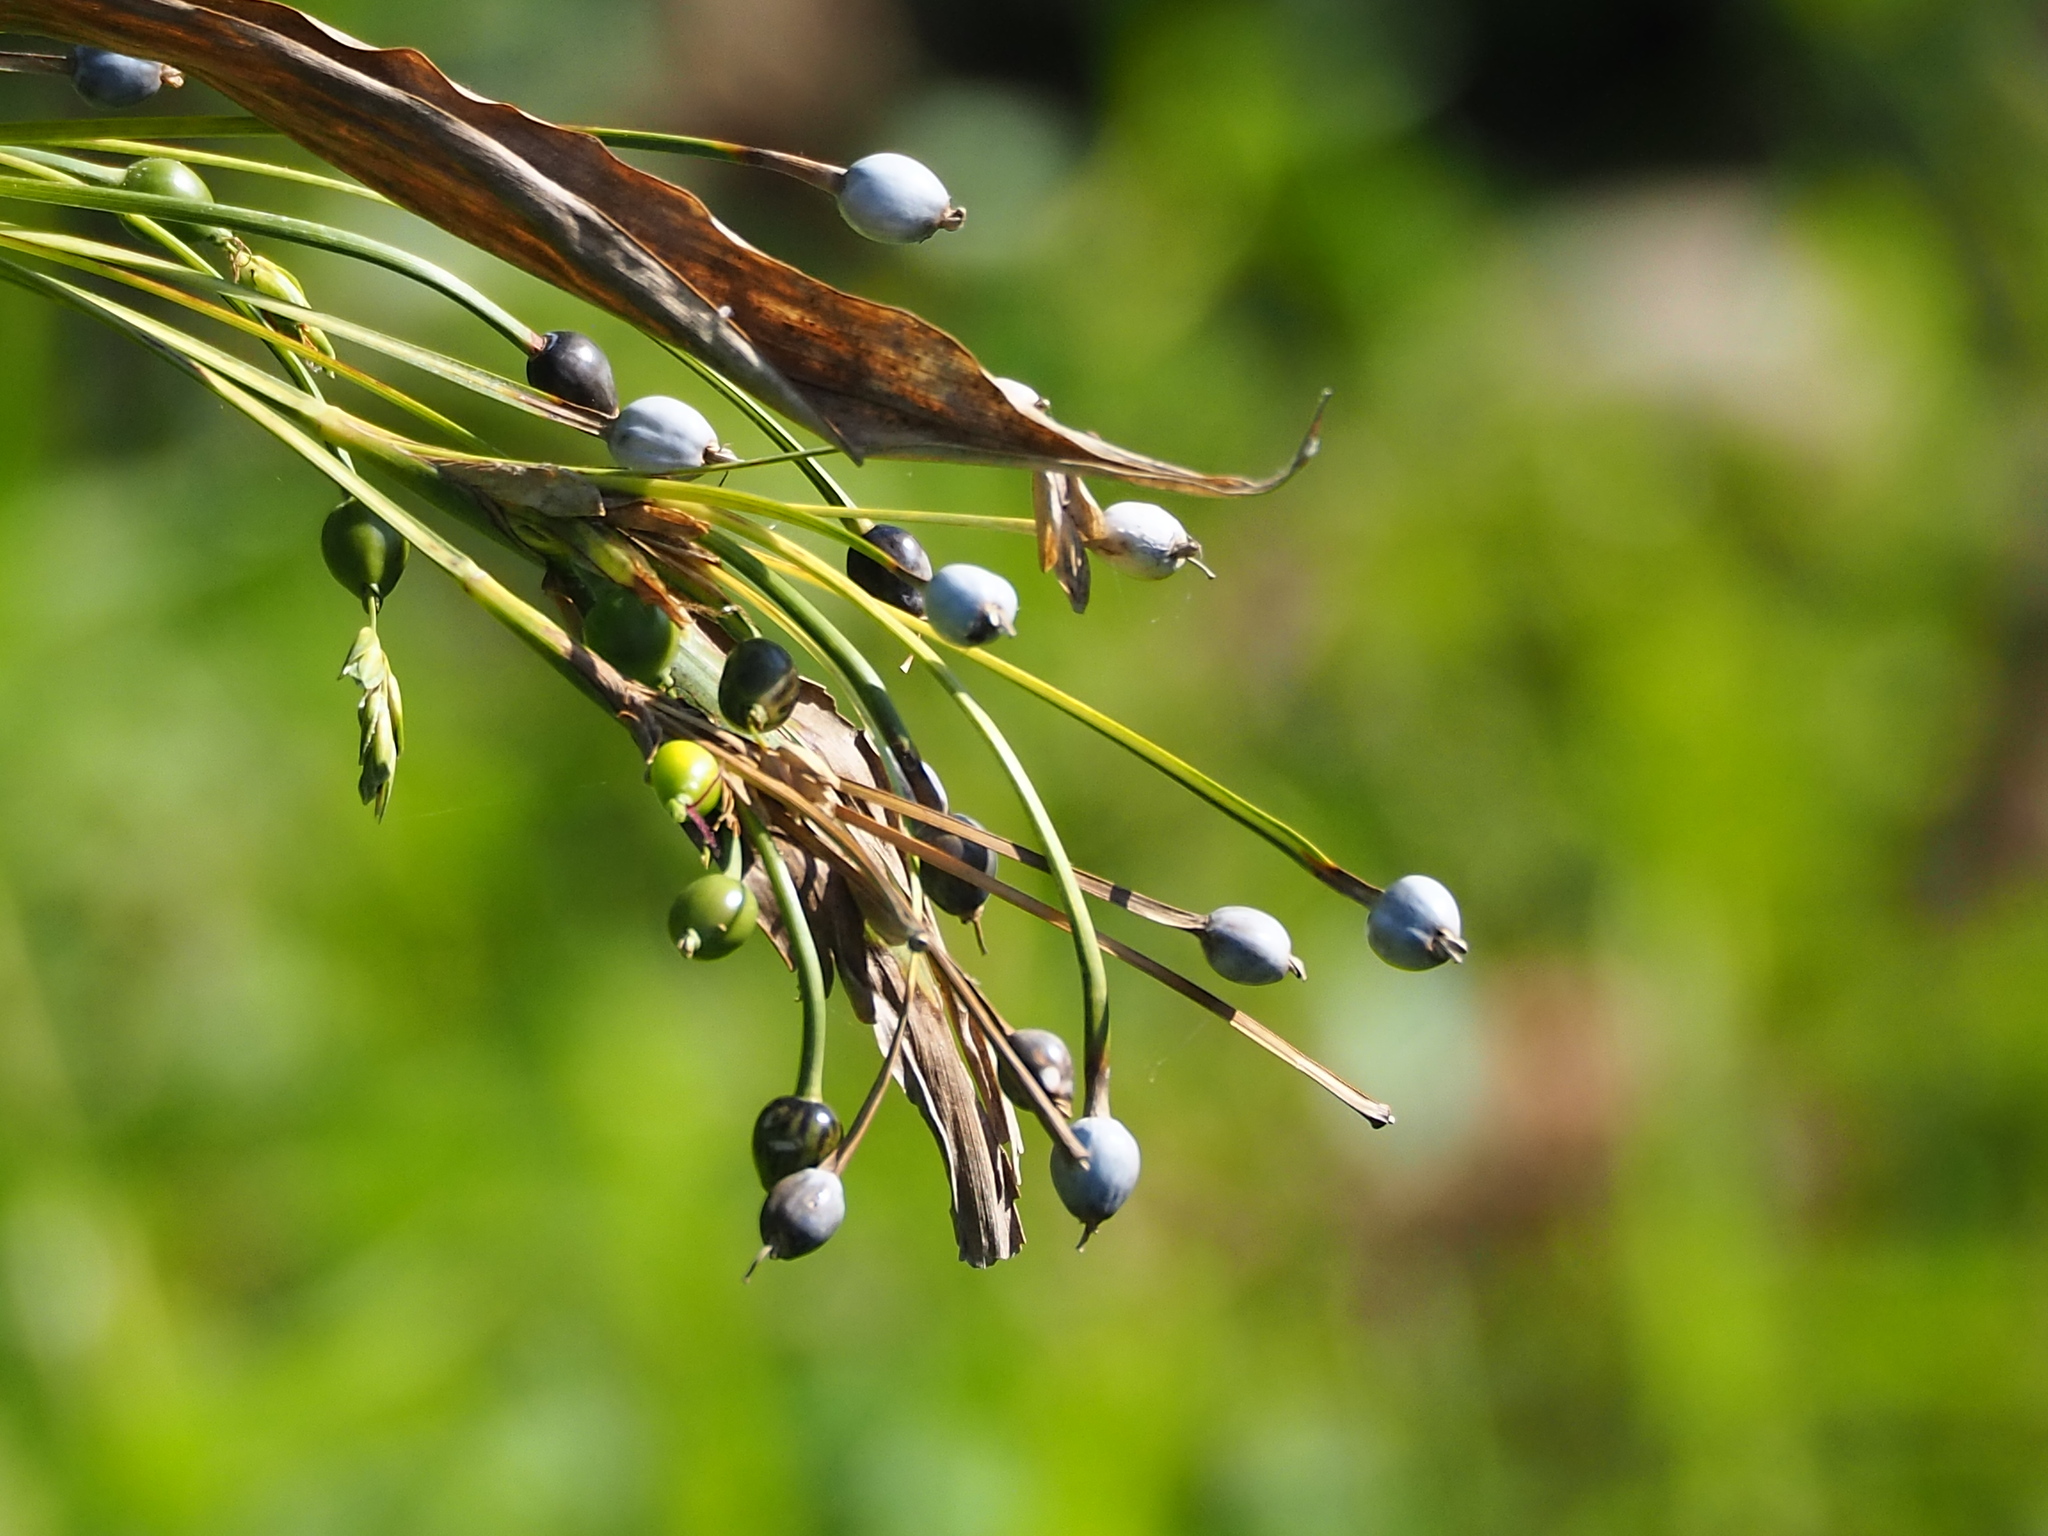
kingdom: Plantae
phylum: Tracheophyta
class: Liliopsida
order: Poales
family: Poaceae
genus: Coix
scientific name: Coix lacryma-jobi
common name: Job's tears
